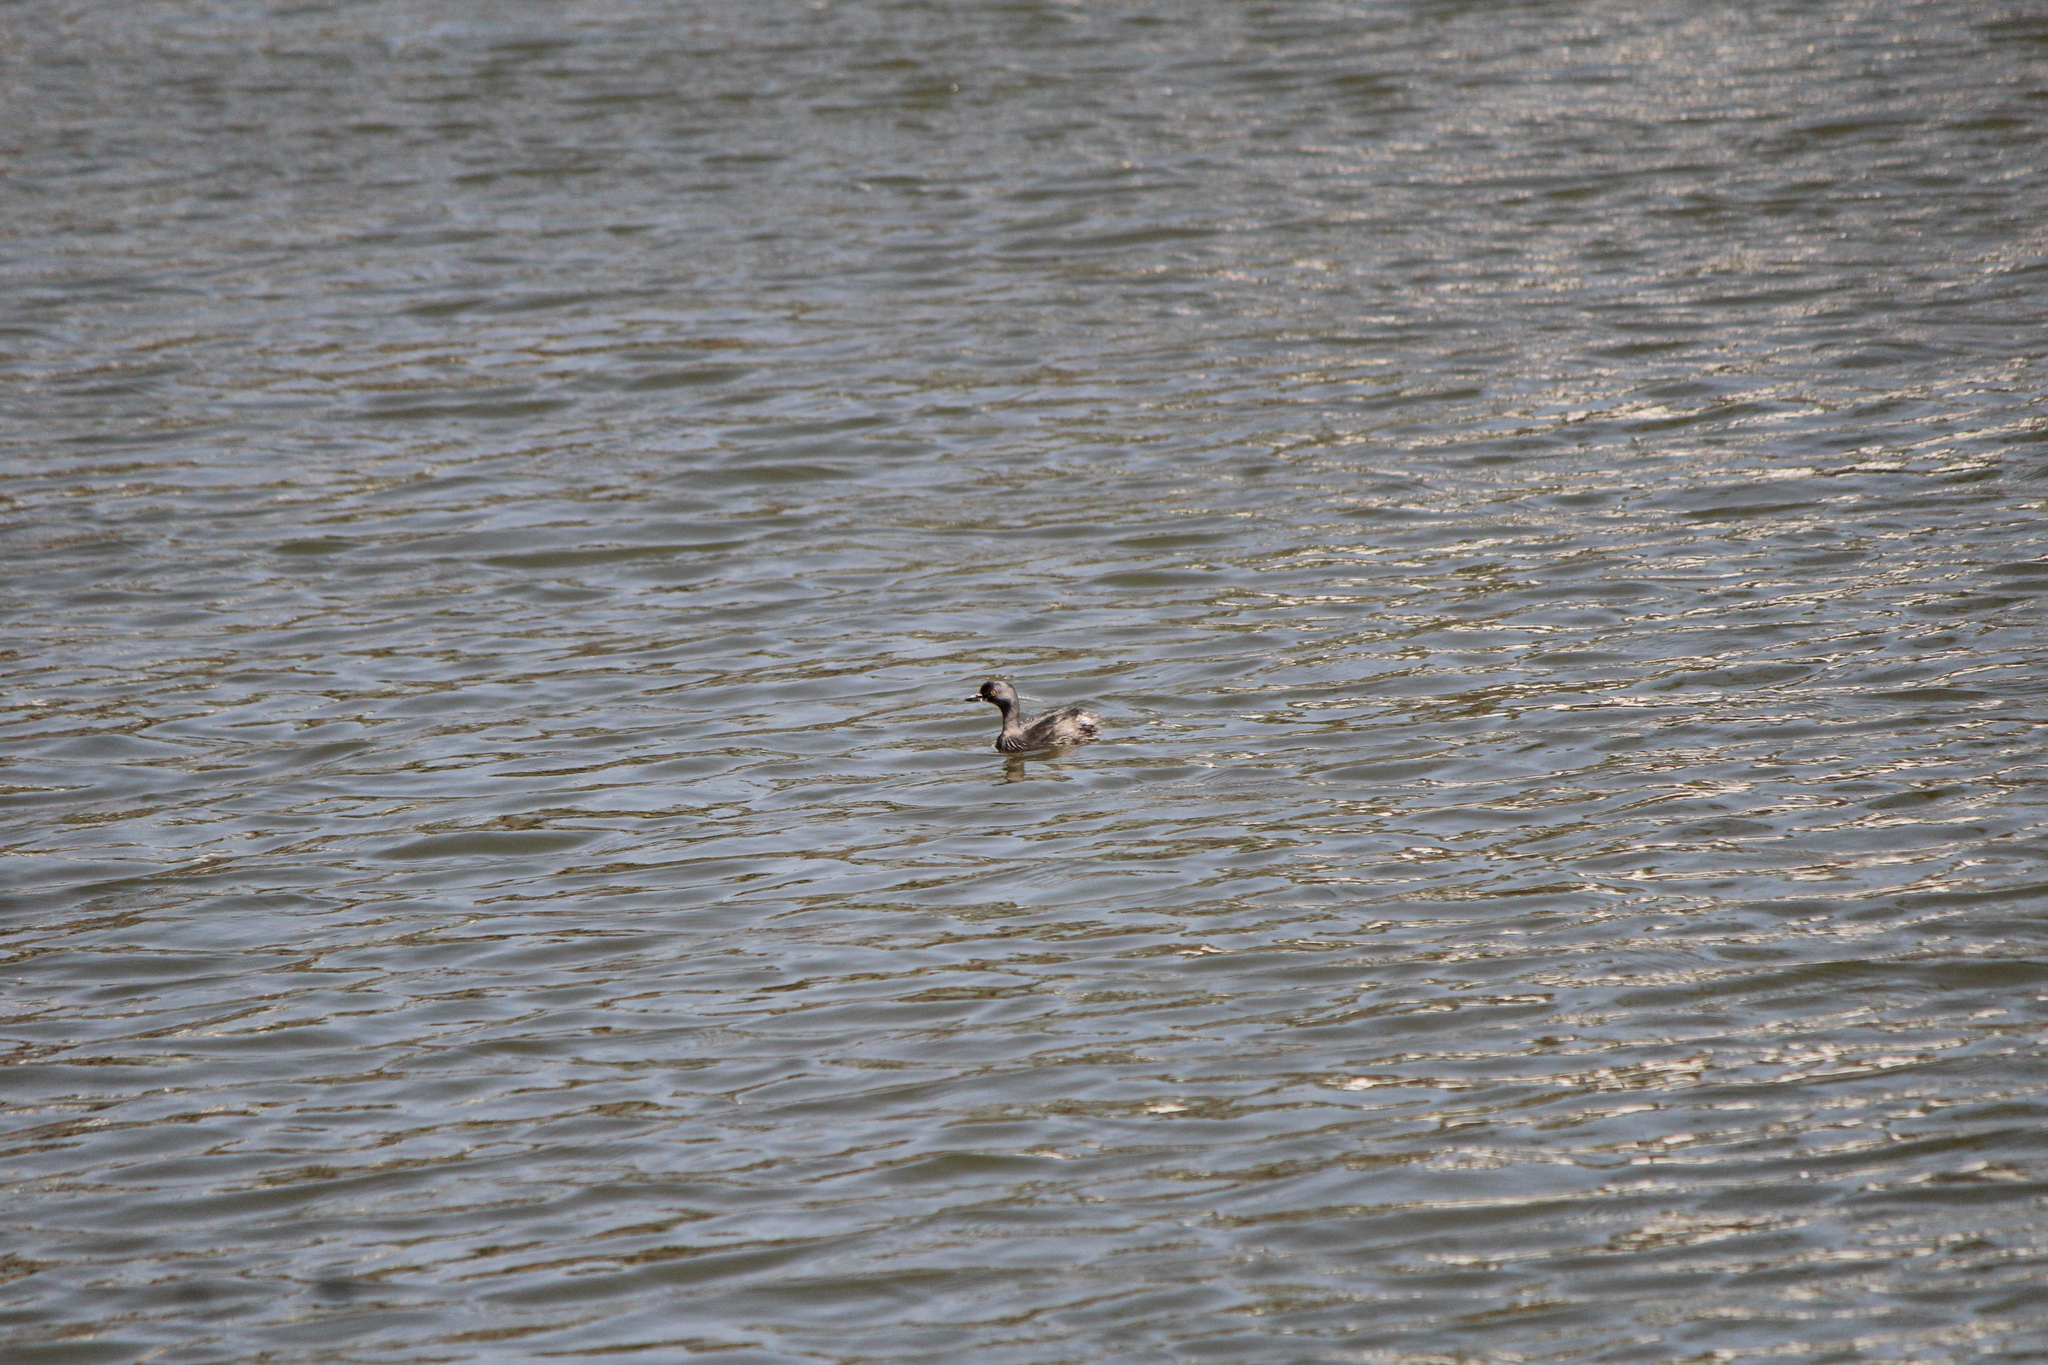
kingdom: Animalia
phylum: Chordata
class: Aves
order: Podicipediformes
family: Podicipedidae
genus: Tachybaptus
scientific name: Tachybaptus dominicus
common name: Least grebe
